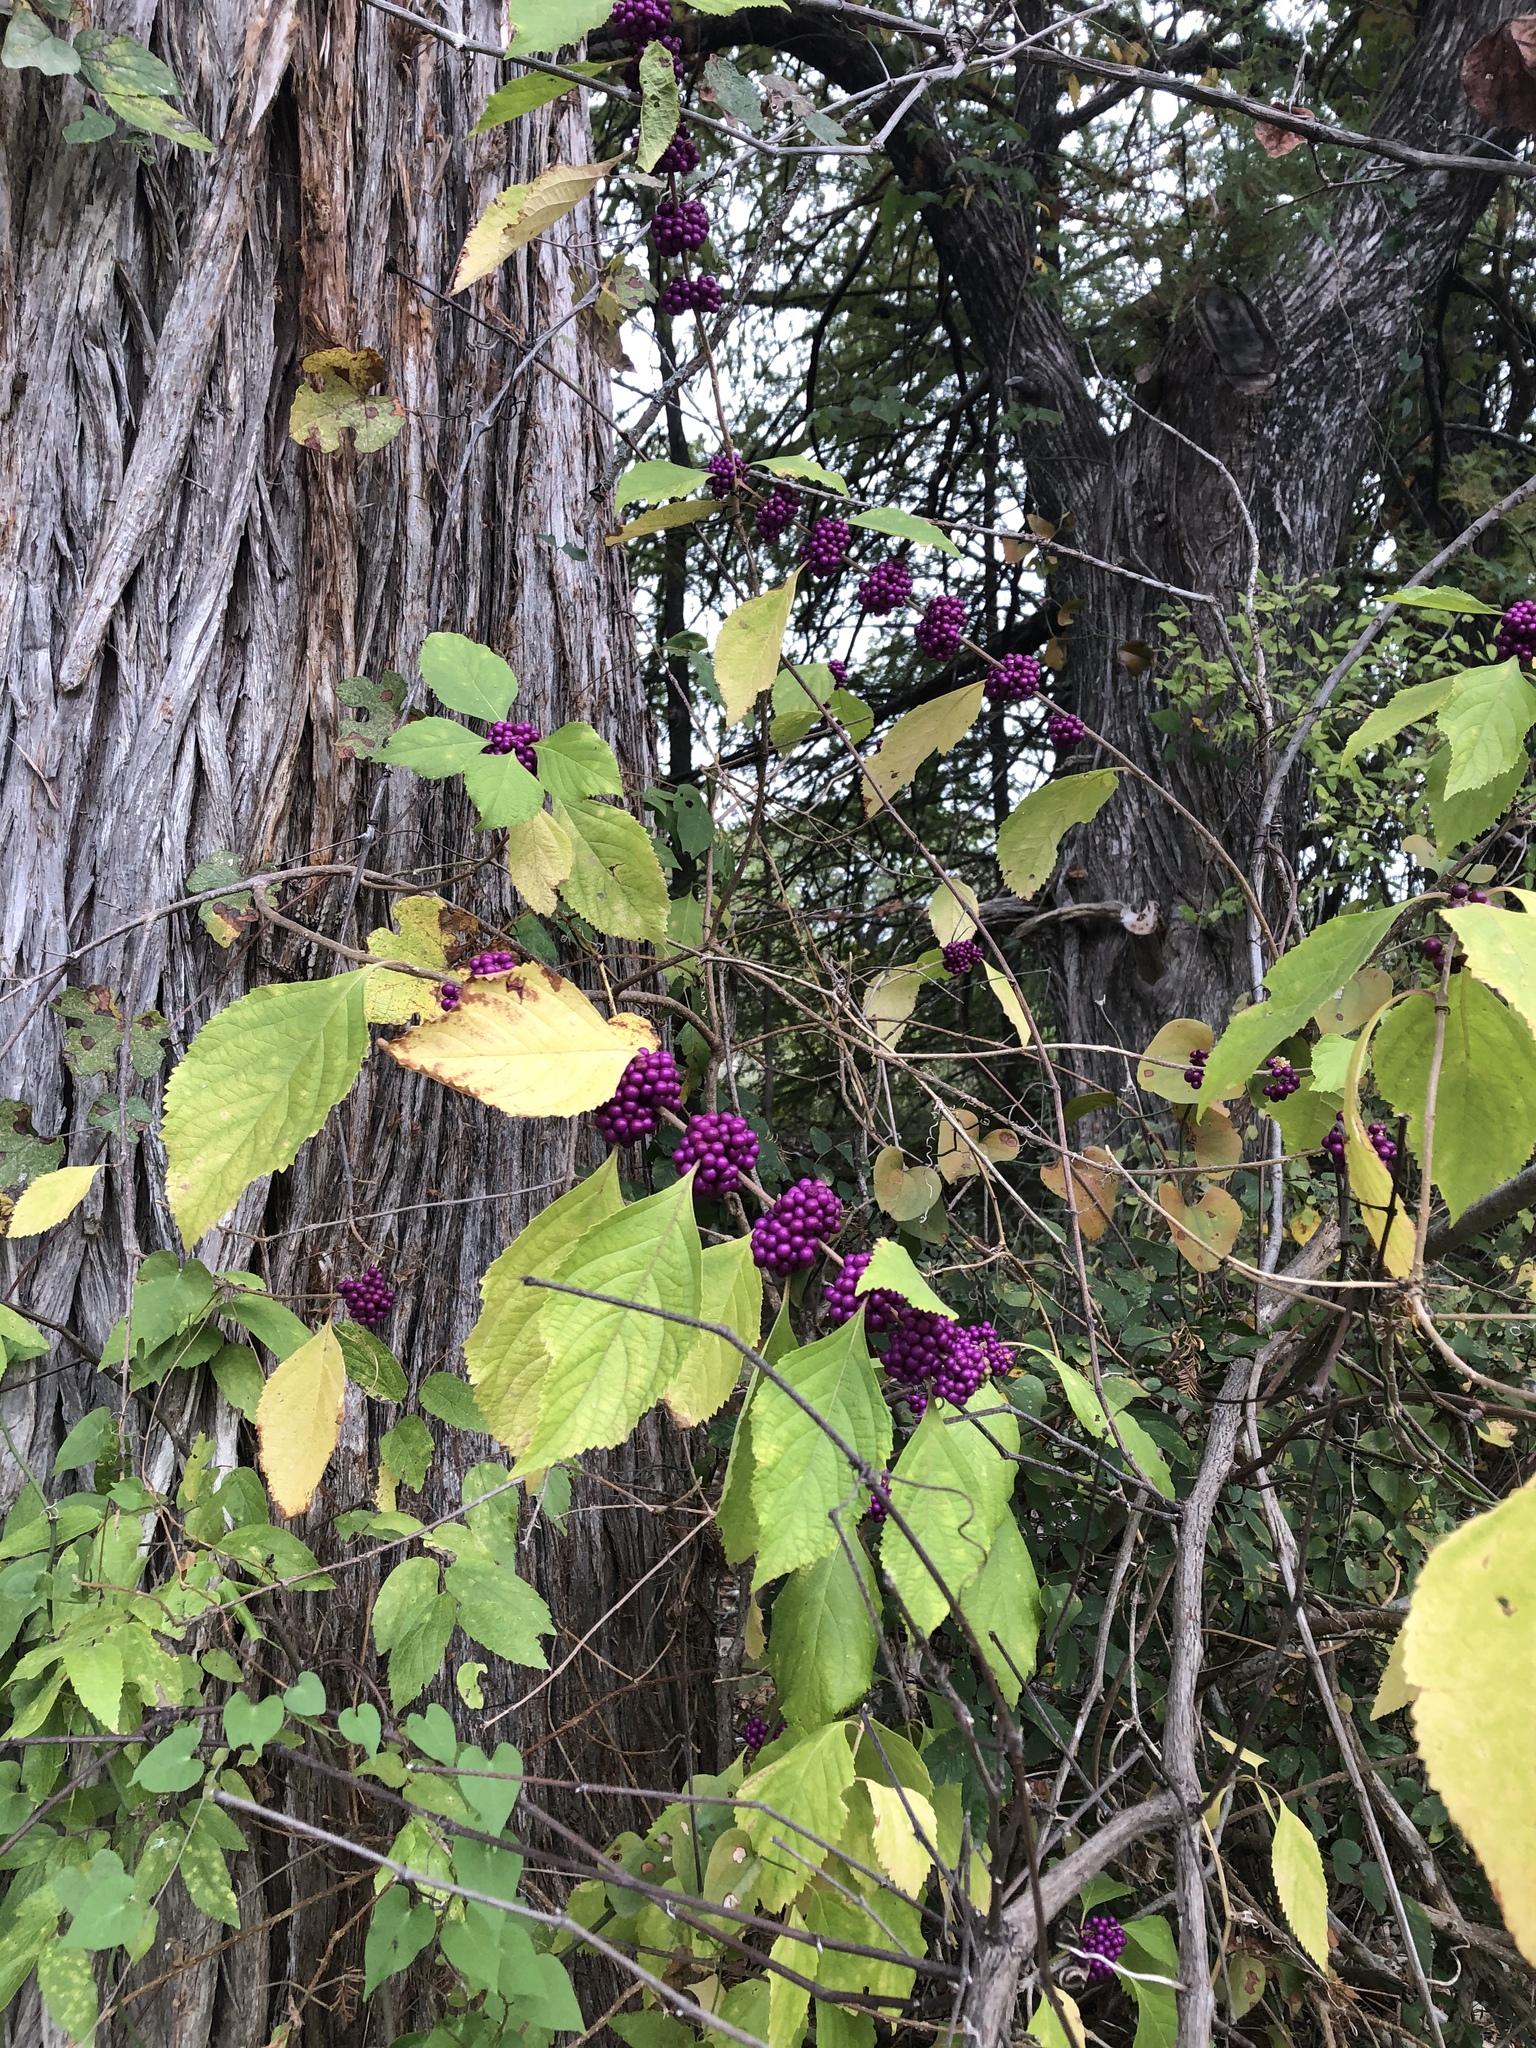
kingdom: Plantae
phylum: Tracheophyta
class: Magnoliopsida
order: Lamiales
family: Lamiaceae
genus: Callicarpa
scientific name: Callicarpa americana
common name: American beautyberry
